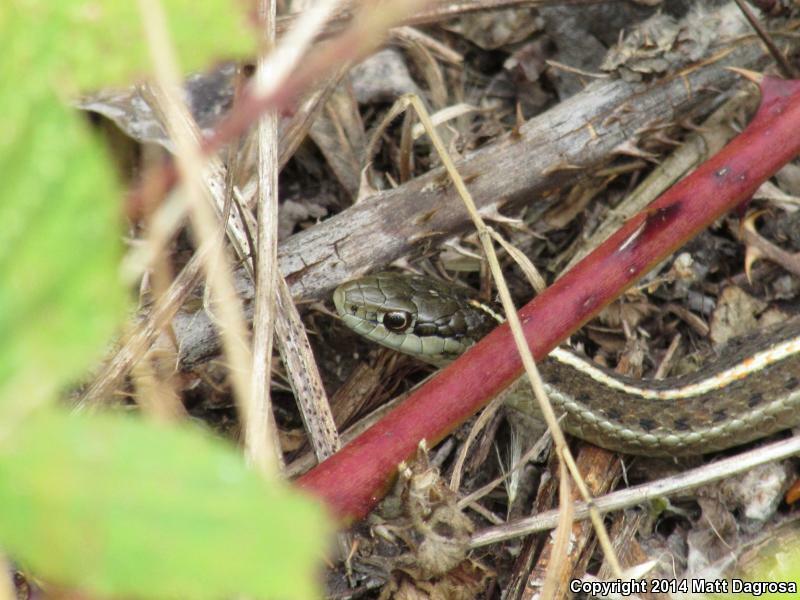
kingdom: Animalia
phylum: Chordata
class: Squamata
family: Colubridae
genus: Thamnophis
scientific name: Thamnophis ordinoides
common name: Northwestern garter snake
